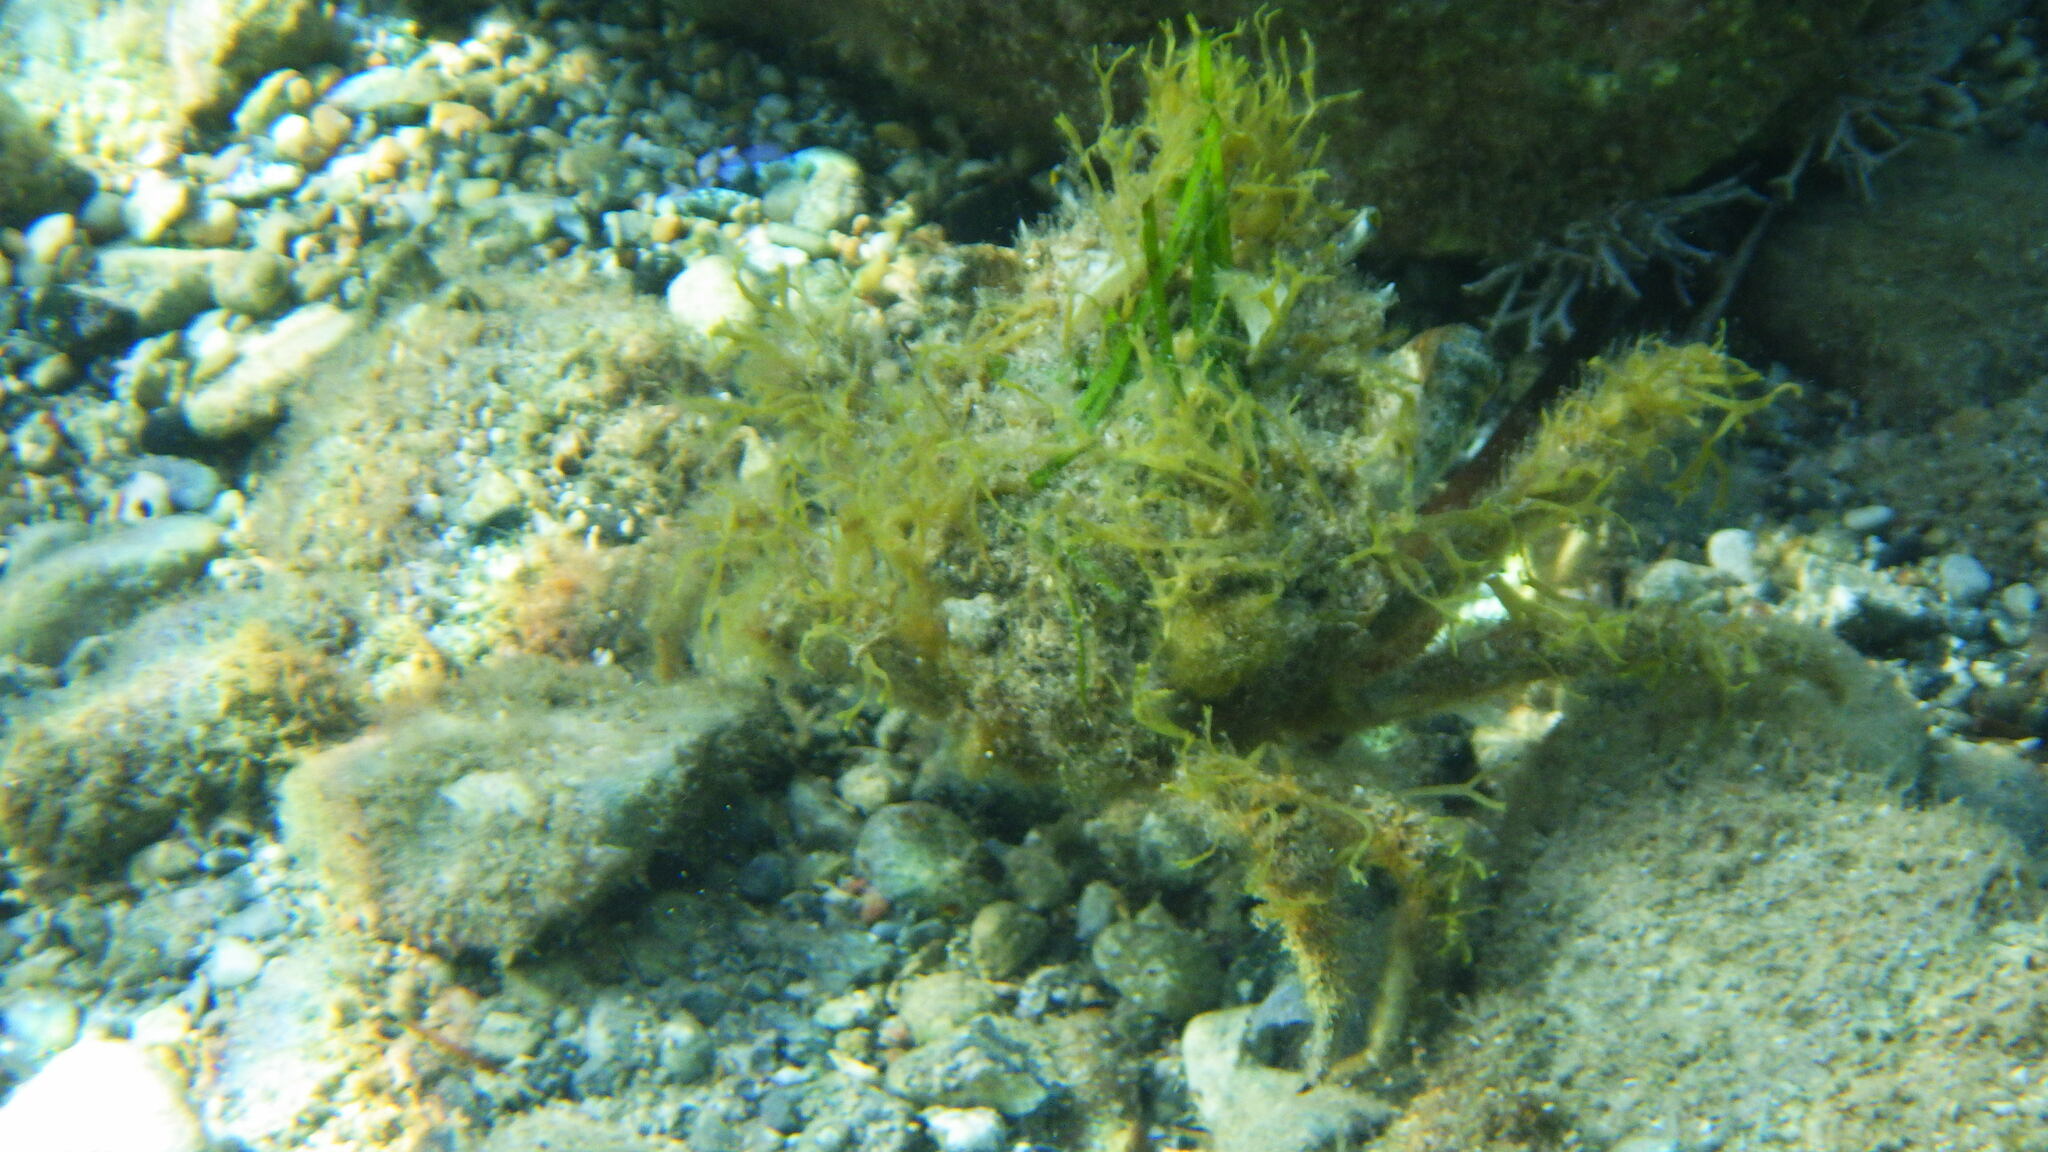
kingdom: Animalia
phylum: Arthropoda
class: Malacostraca
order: Decapoda
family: Majidae
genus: Maja
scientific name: Maja crispata
